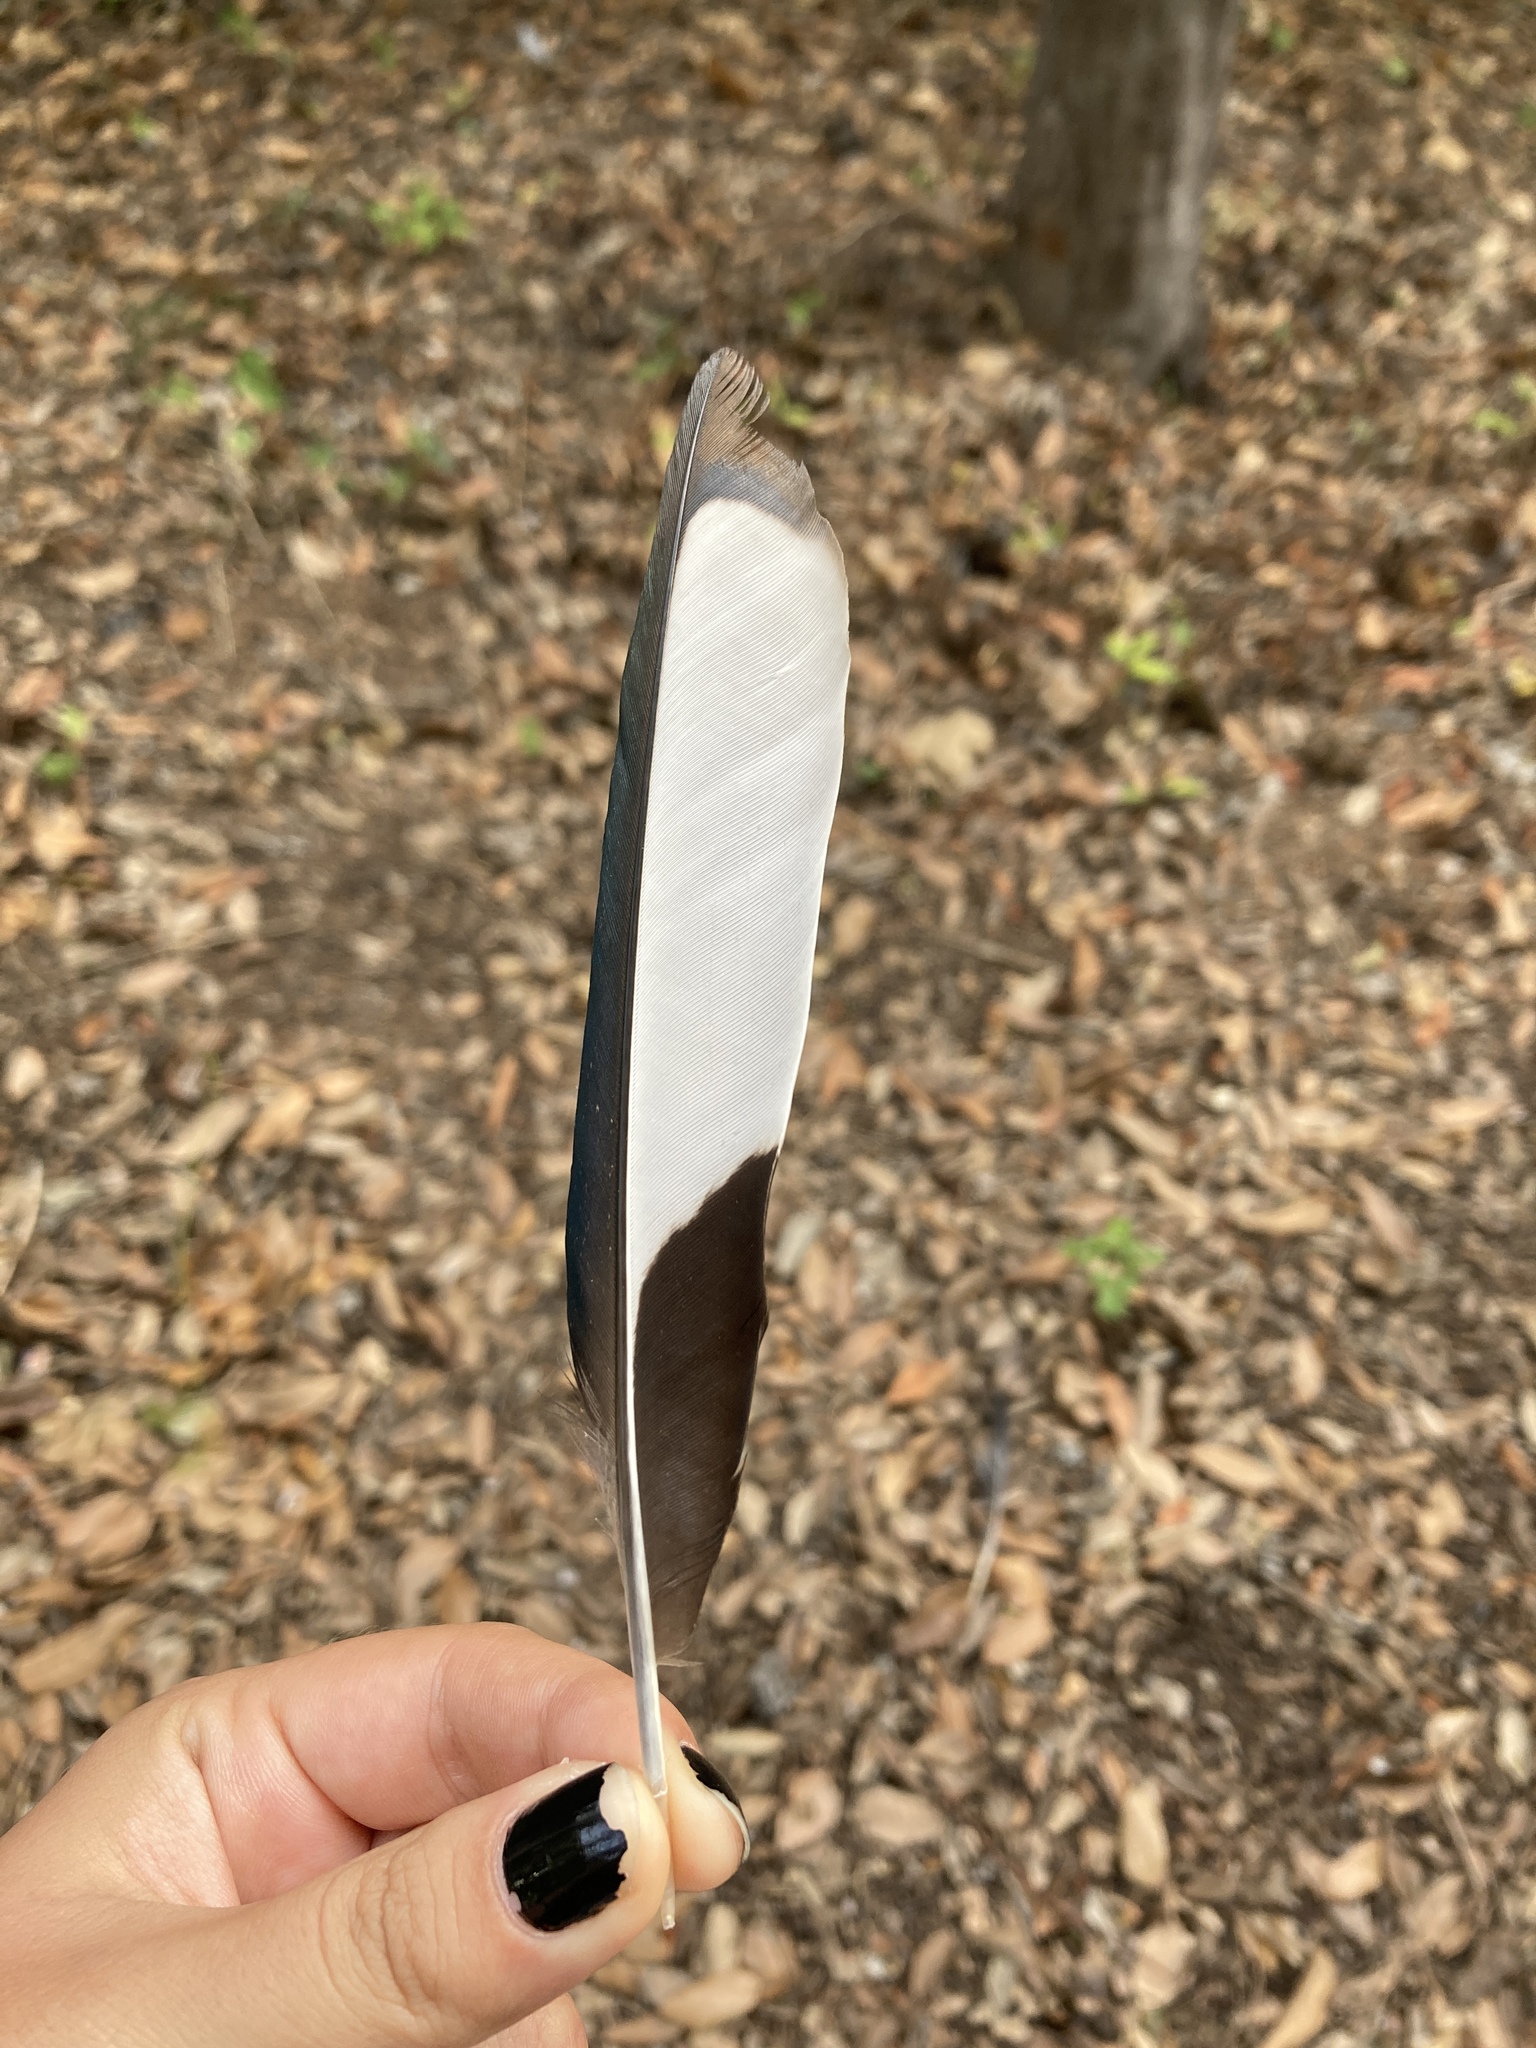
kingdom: Animalia
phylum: Chordata
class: Aves
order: Passeriformes
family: Corvidae
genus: Pica
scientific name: Pica pica
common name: Eurasian magpie
